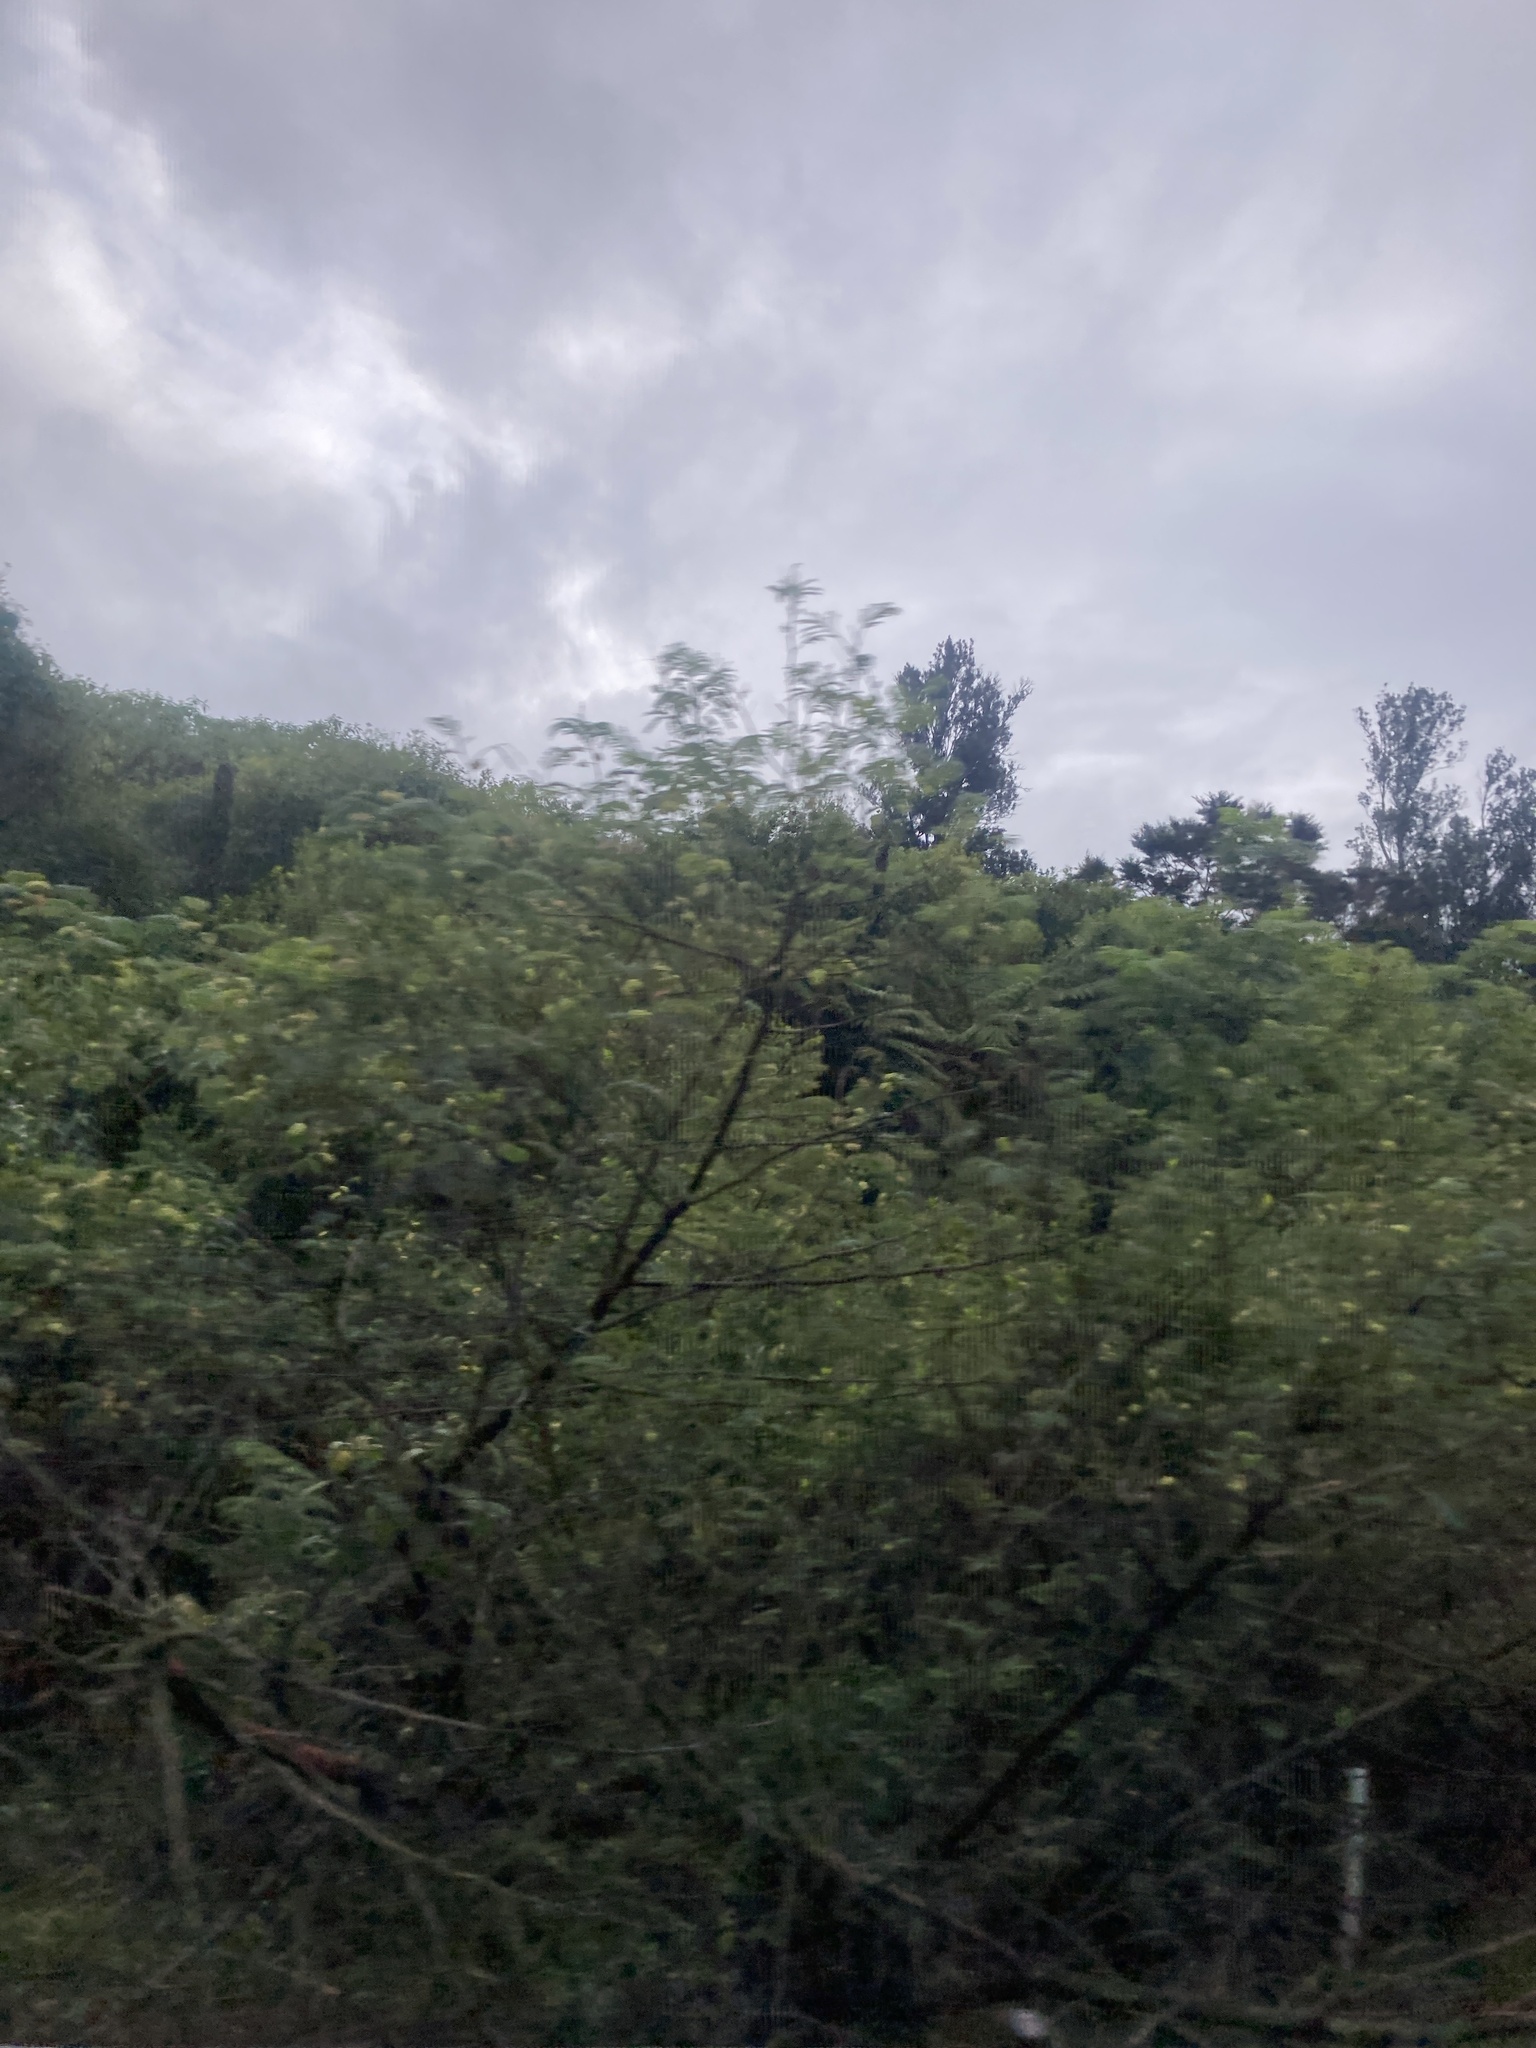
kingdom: Plantae
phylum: Tracheophyta
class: Magnoliopsida
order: Fabales
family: Fabaceae
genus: Paraserianthes
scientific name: Paraserianthes lophantha
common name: Plume albizia
